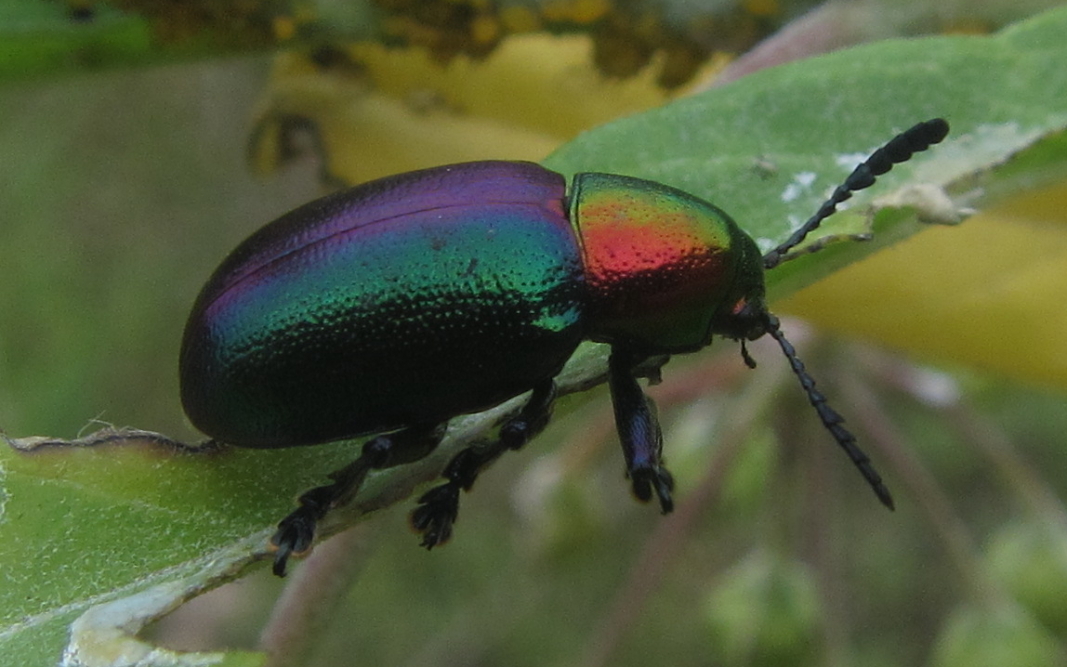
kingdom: Animalia
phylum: Arthropoda
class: Insecta
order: Coleoptera
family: Chrysomelidae
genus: Platycorynus
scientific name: Platycorynus dejeani
